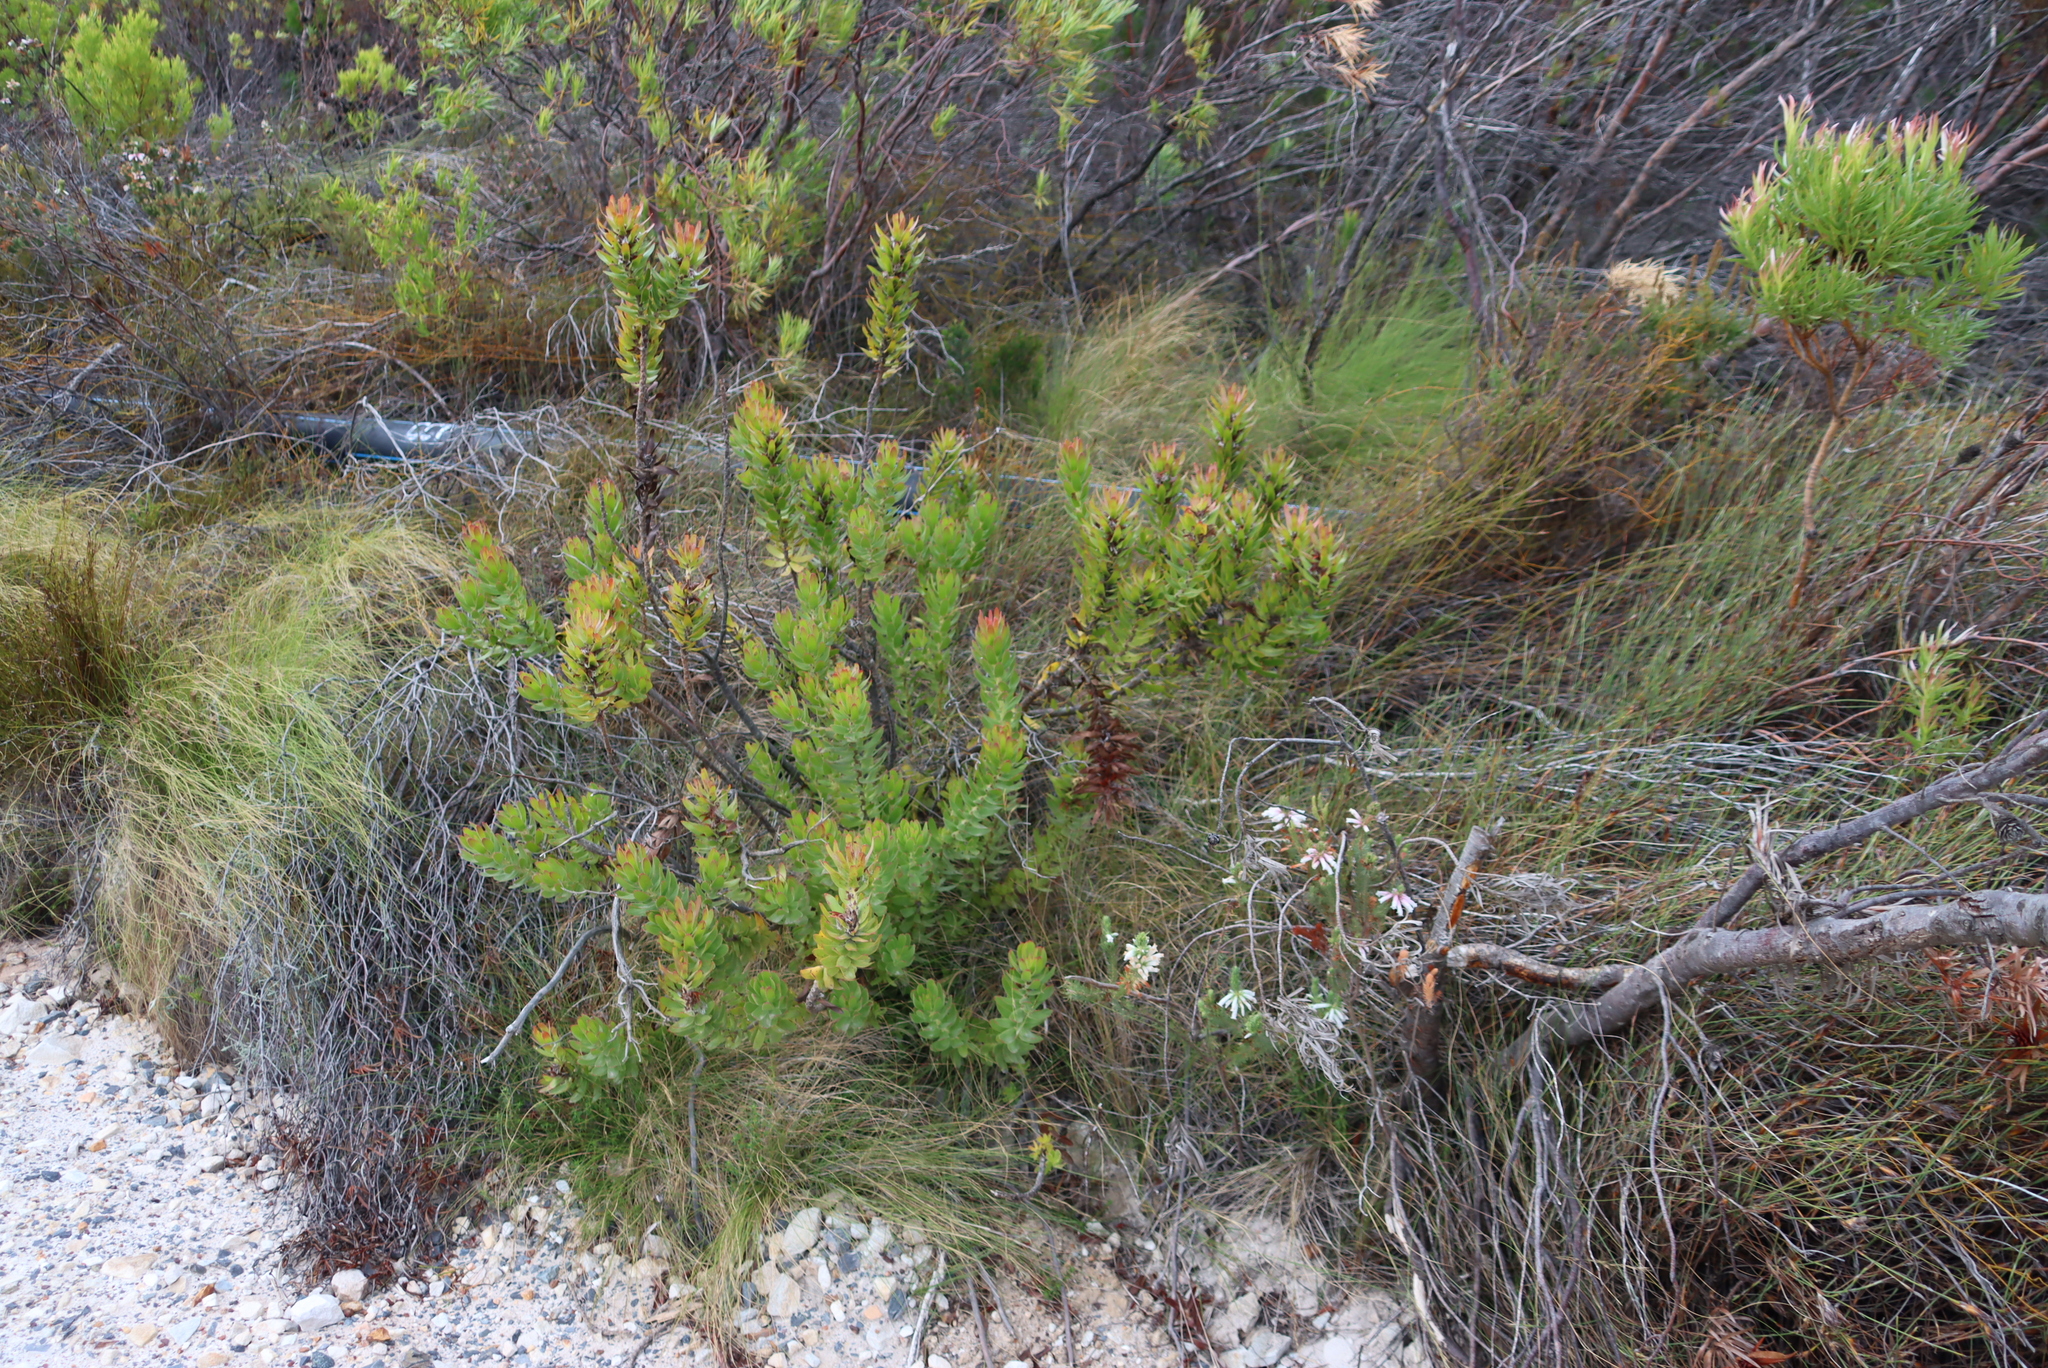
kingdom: Plantae
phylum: Tracheophyta
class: Magnoliopsida
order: Proteales
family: Proteaceae
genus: Mimetes
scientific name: Mimetes cucullatus
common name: Common pagoda
